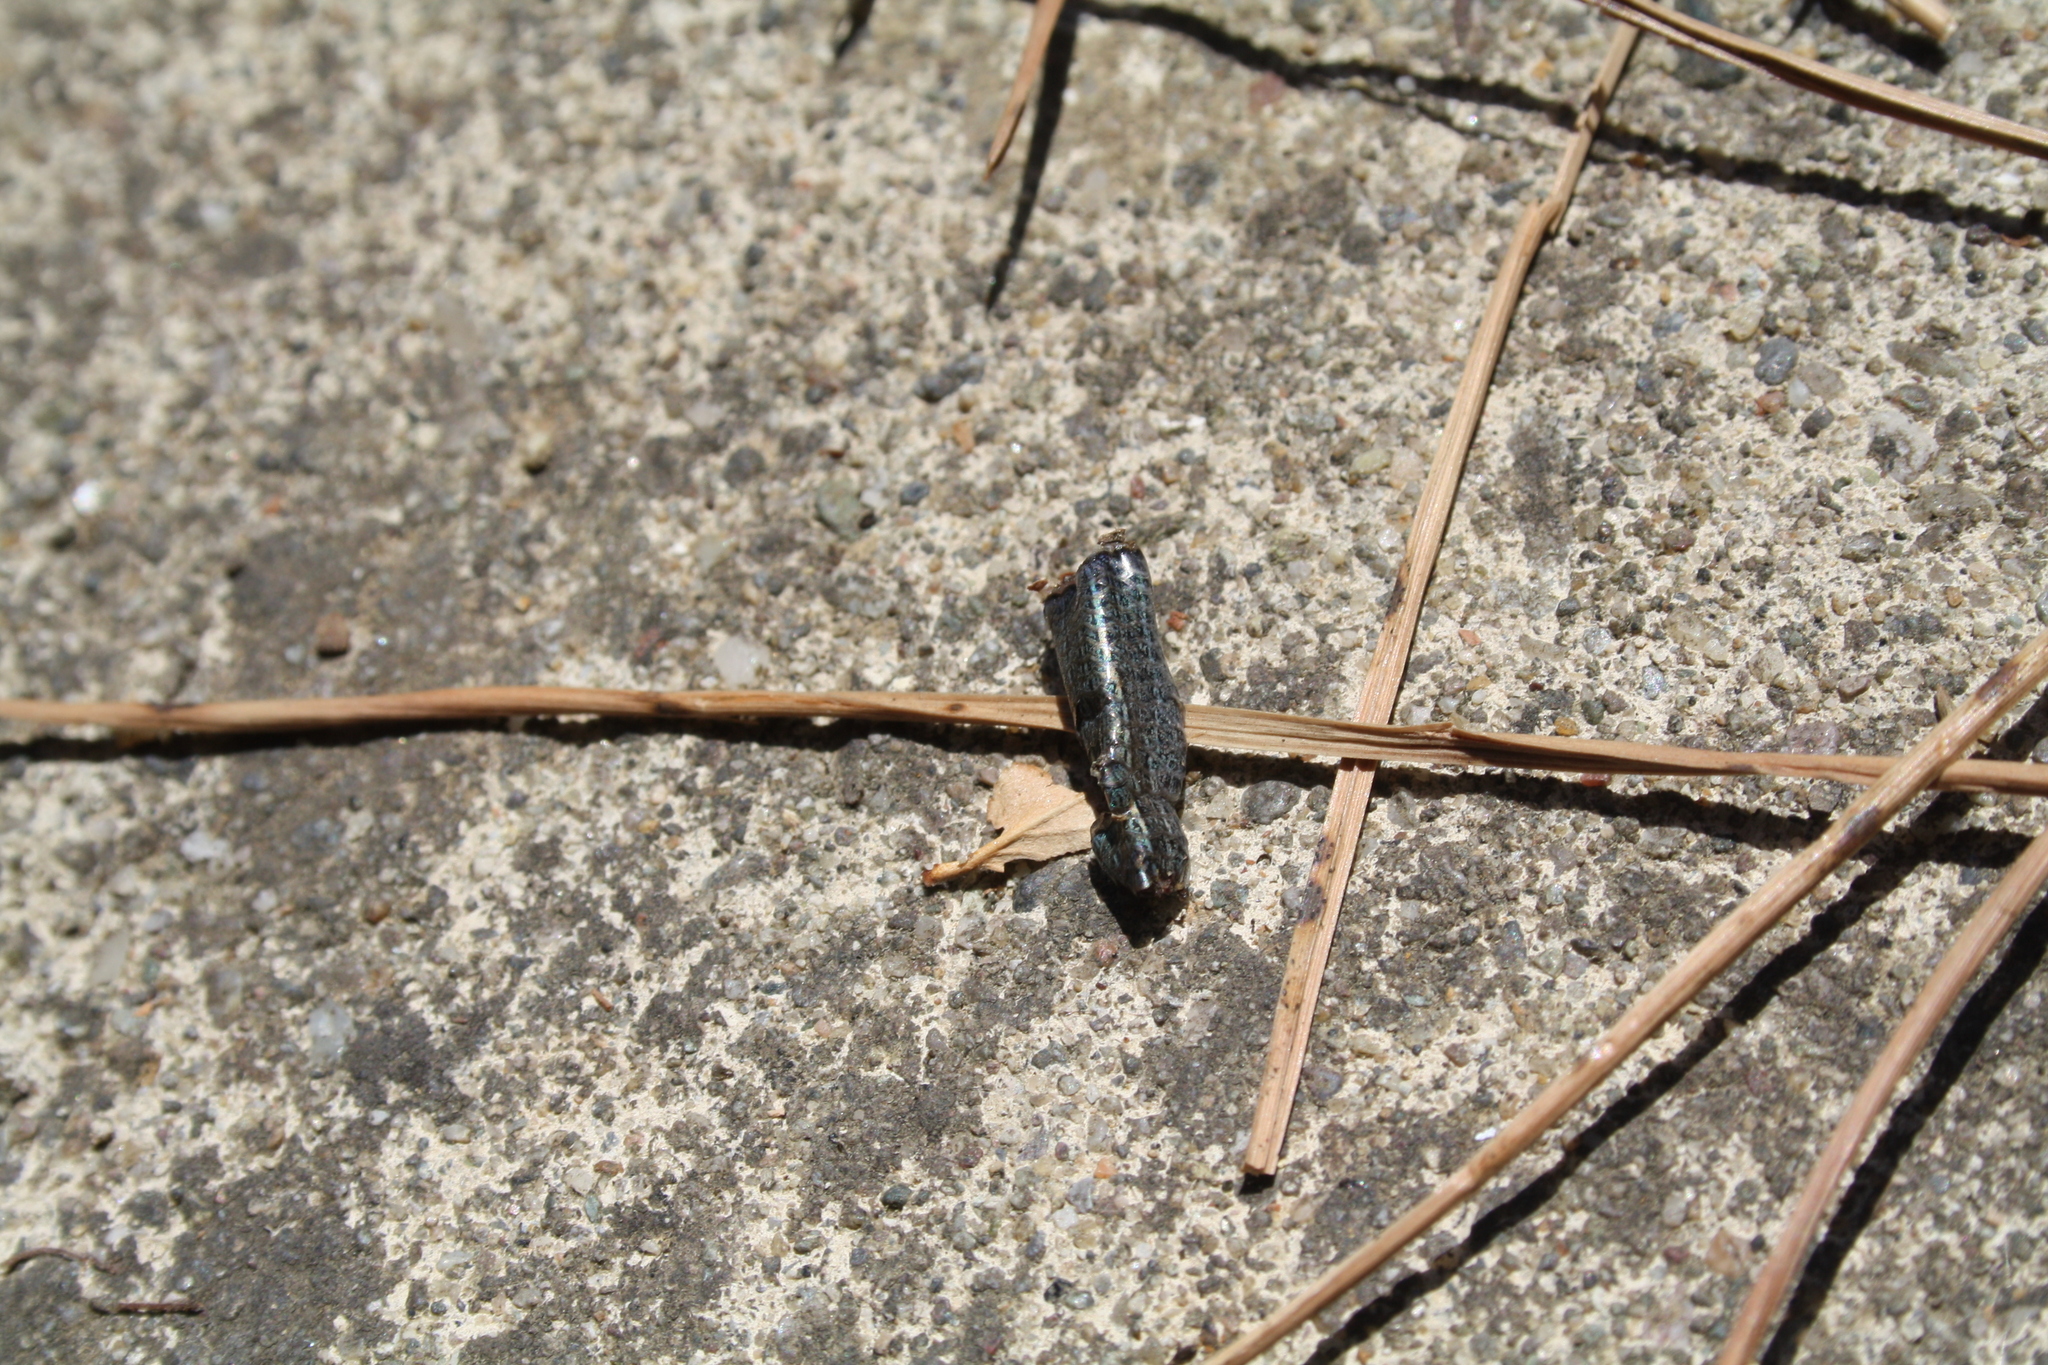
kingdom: Animalia
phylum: Chordata
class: Squamata
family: Scincidae
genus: Ablepharus
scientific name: Ablepharus kitaibelii
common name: Juniper skink
